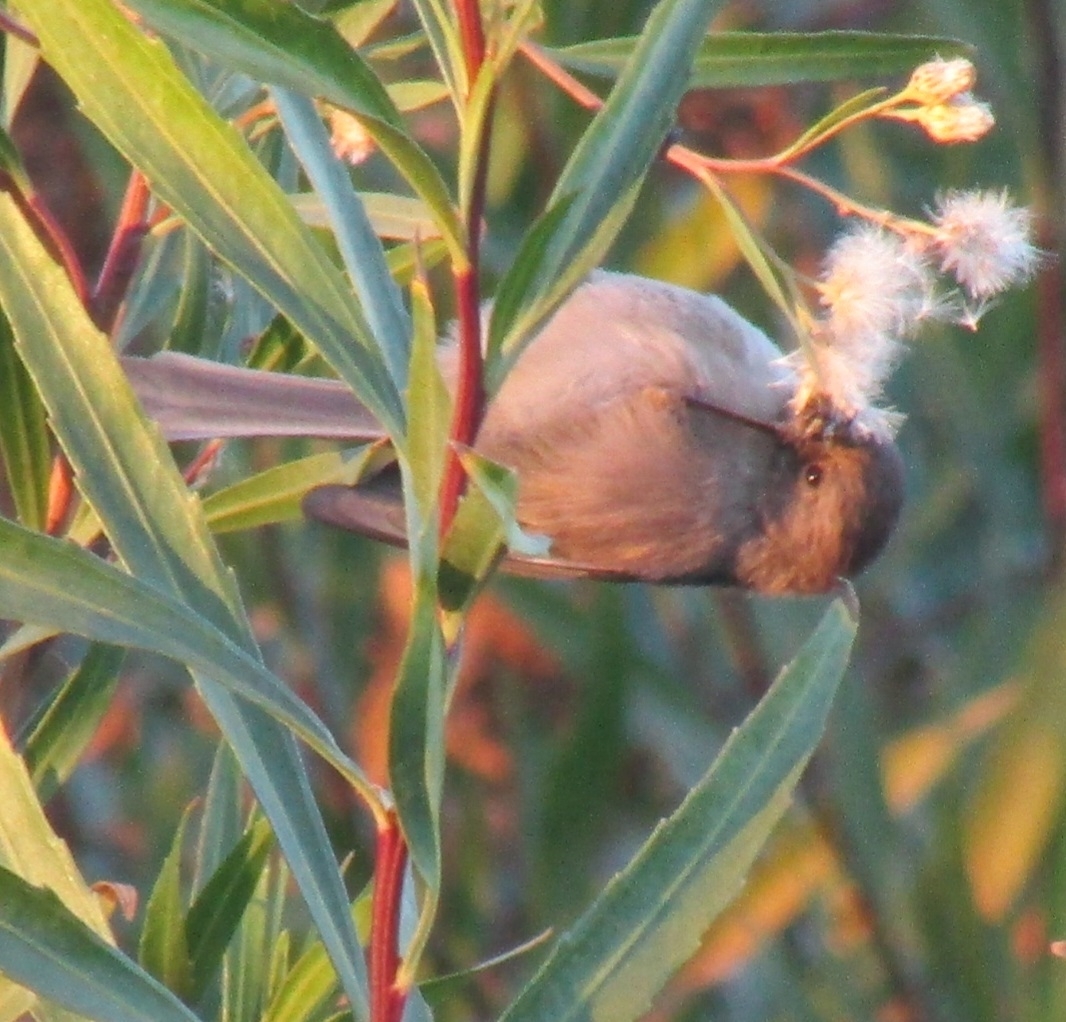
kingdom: Animalia
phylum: Chordata
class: Aves
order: Passeriformes
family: Aegithalidae
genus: Psaltriparus
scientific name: Psaltriparus minimus
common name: American bushtit
